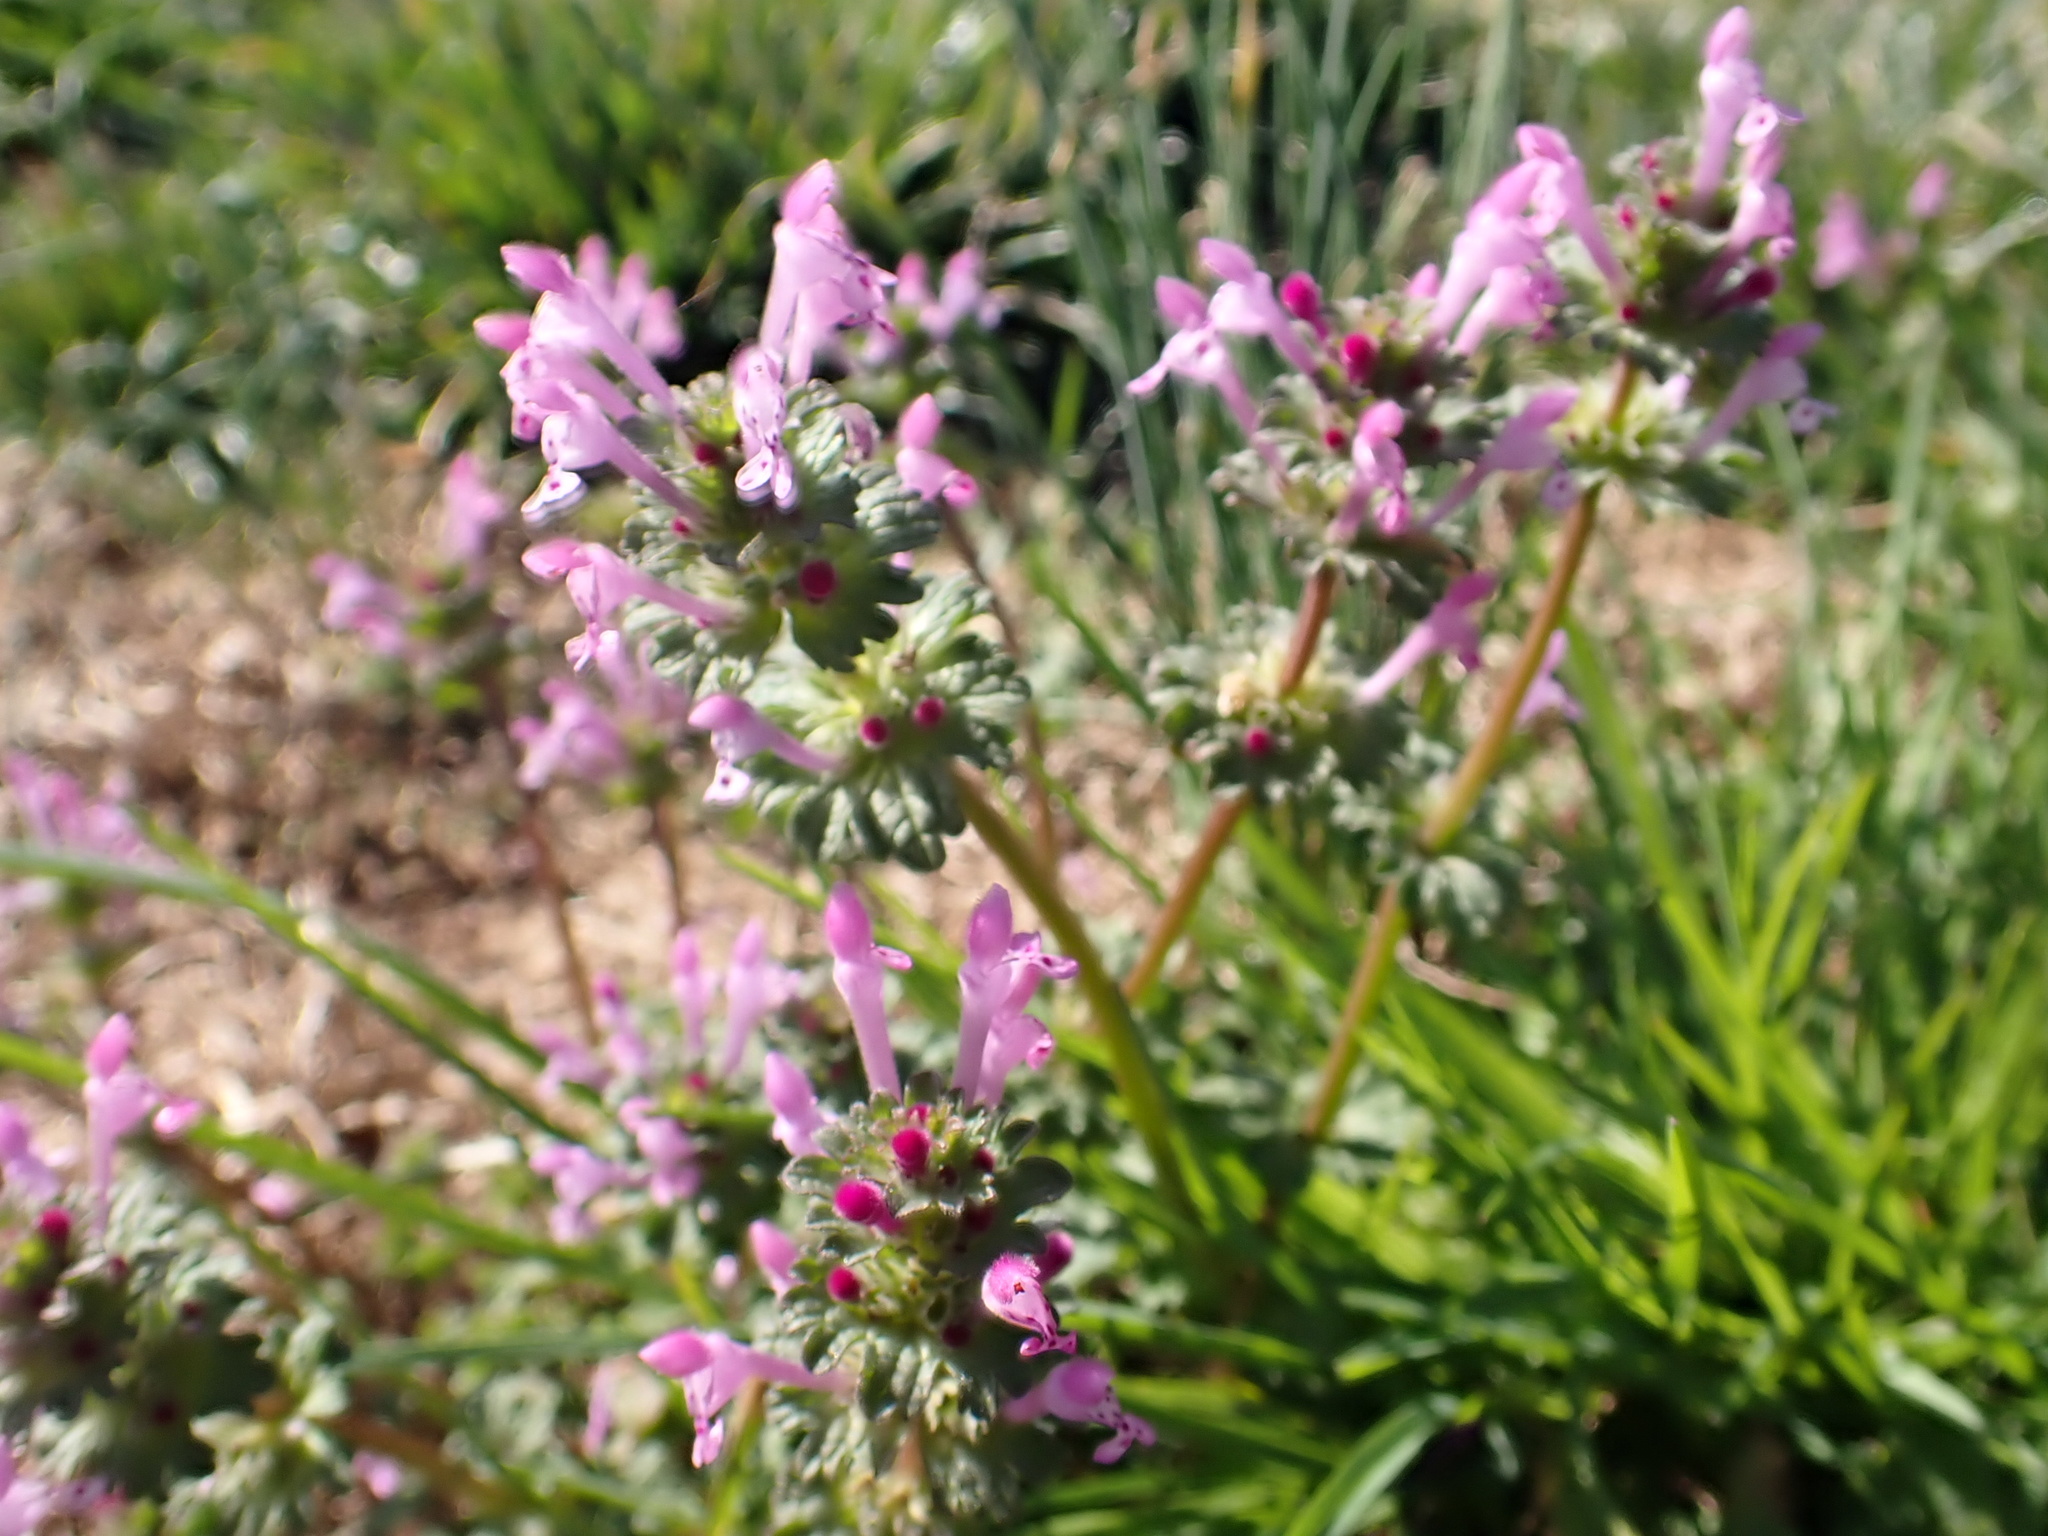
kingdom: Plantae
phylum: Tracheophyta
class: Magnoliopsida
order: Lamiales
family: Lamiaceae
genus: Lamium
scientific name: Lamium amplexicaule
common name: Henbit dead-nettle
